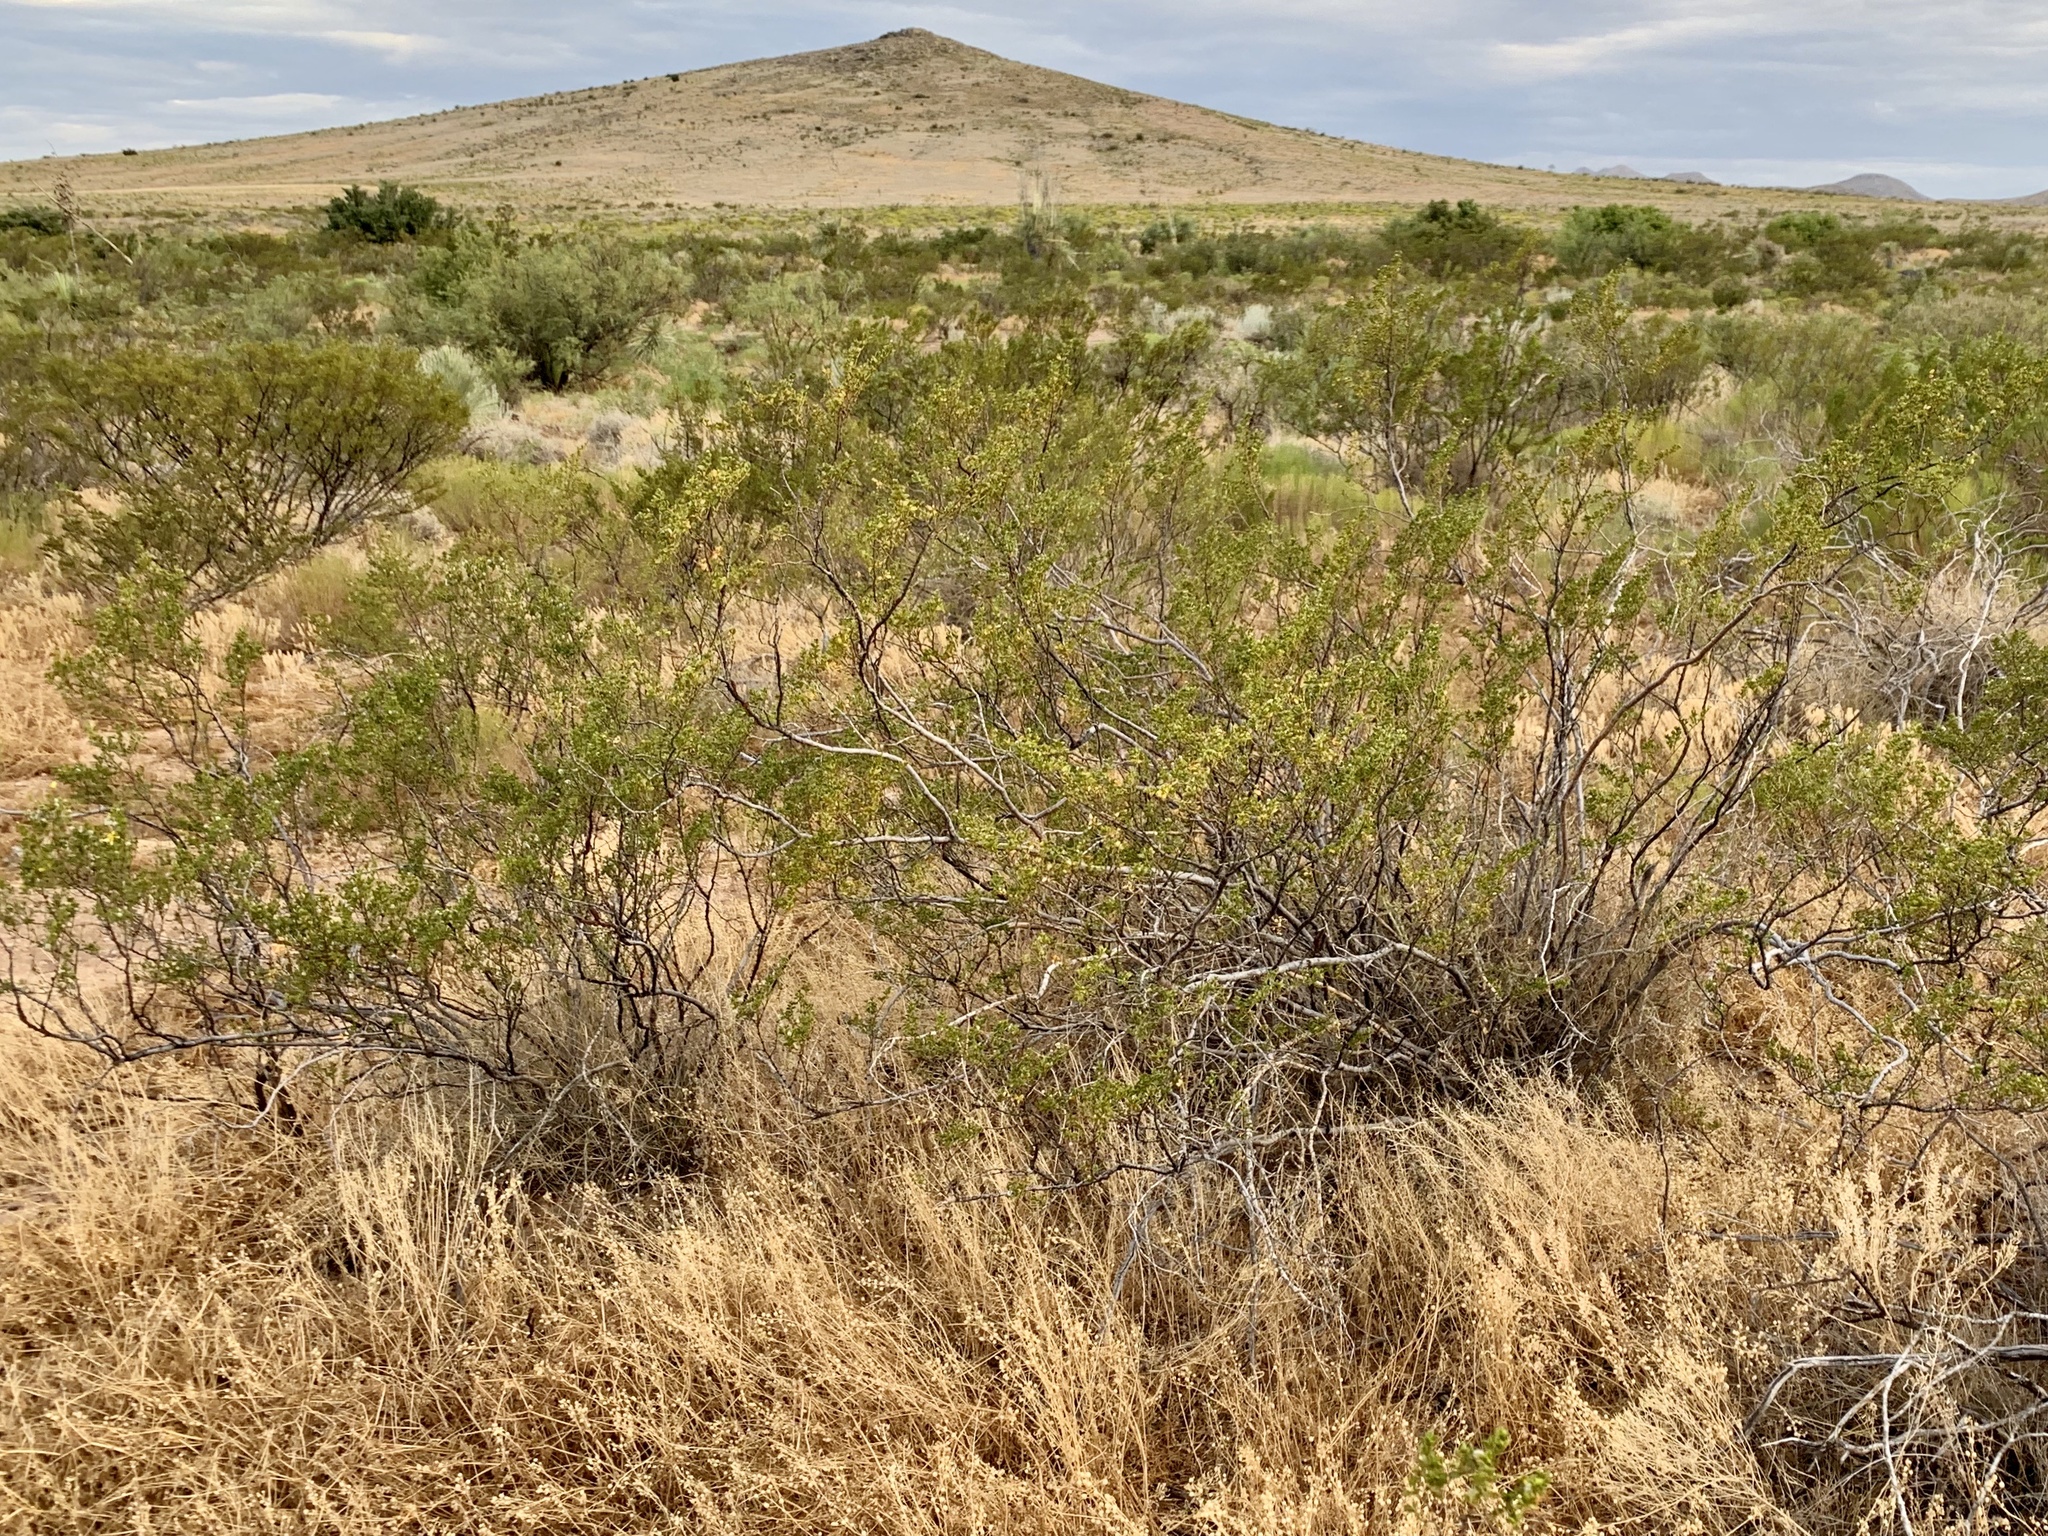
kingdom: Plantae
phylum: Tracheophyta
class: Magnoliopsida
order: Zygophyllales
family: Zygophyllaceae
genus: Larrea
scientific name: Larrea tridentata
